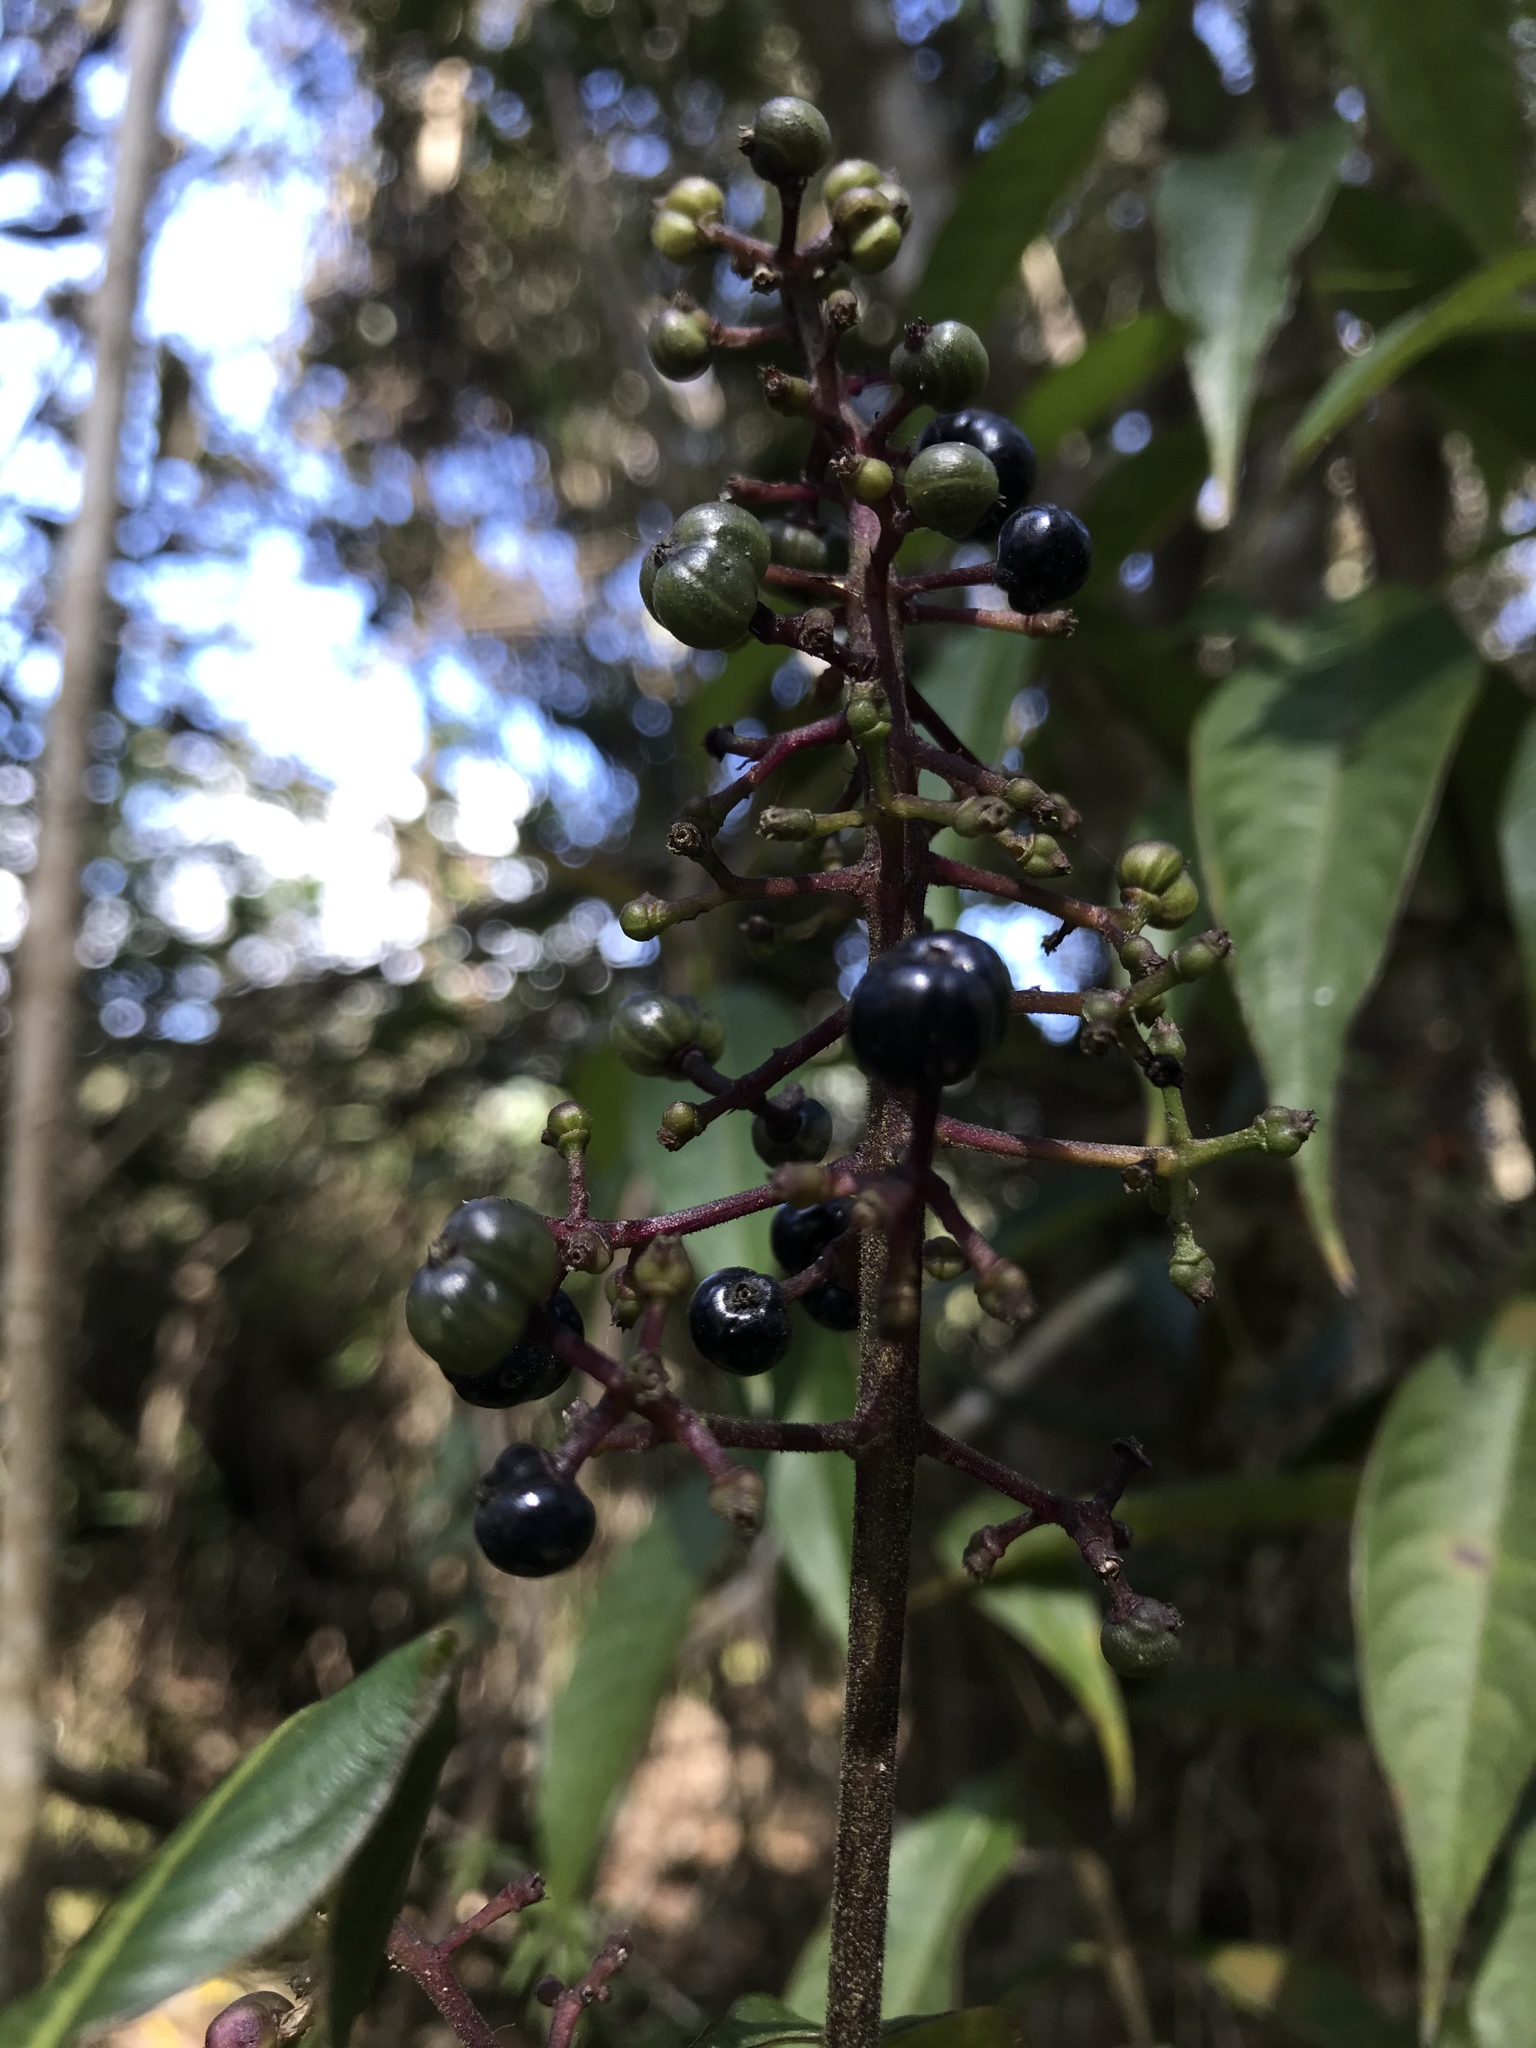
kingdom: Plantae
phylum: Tracheophyta
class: Magnoliopsida
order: Gentianales
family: Rubiaceae
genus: Palicourea
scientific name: Palicourea angustifolia
